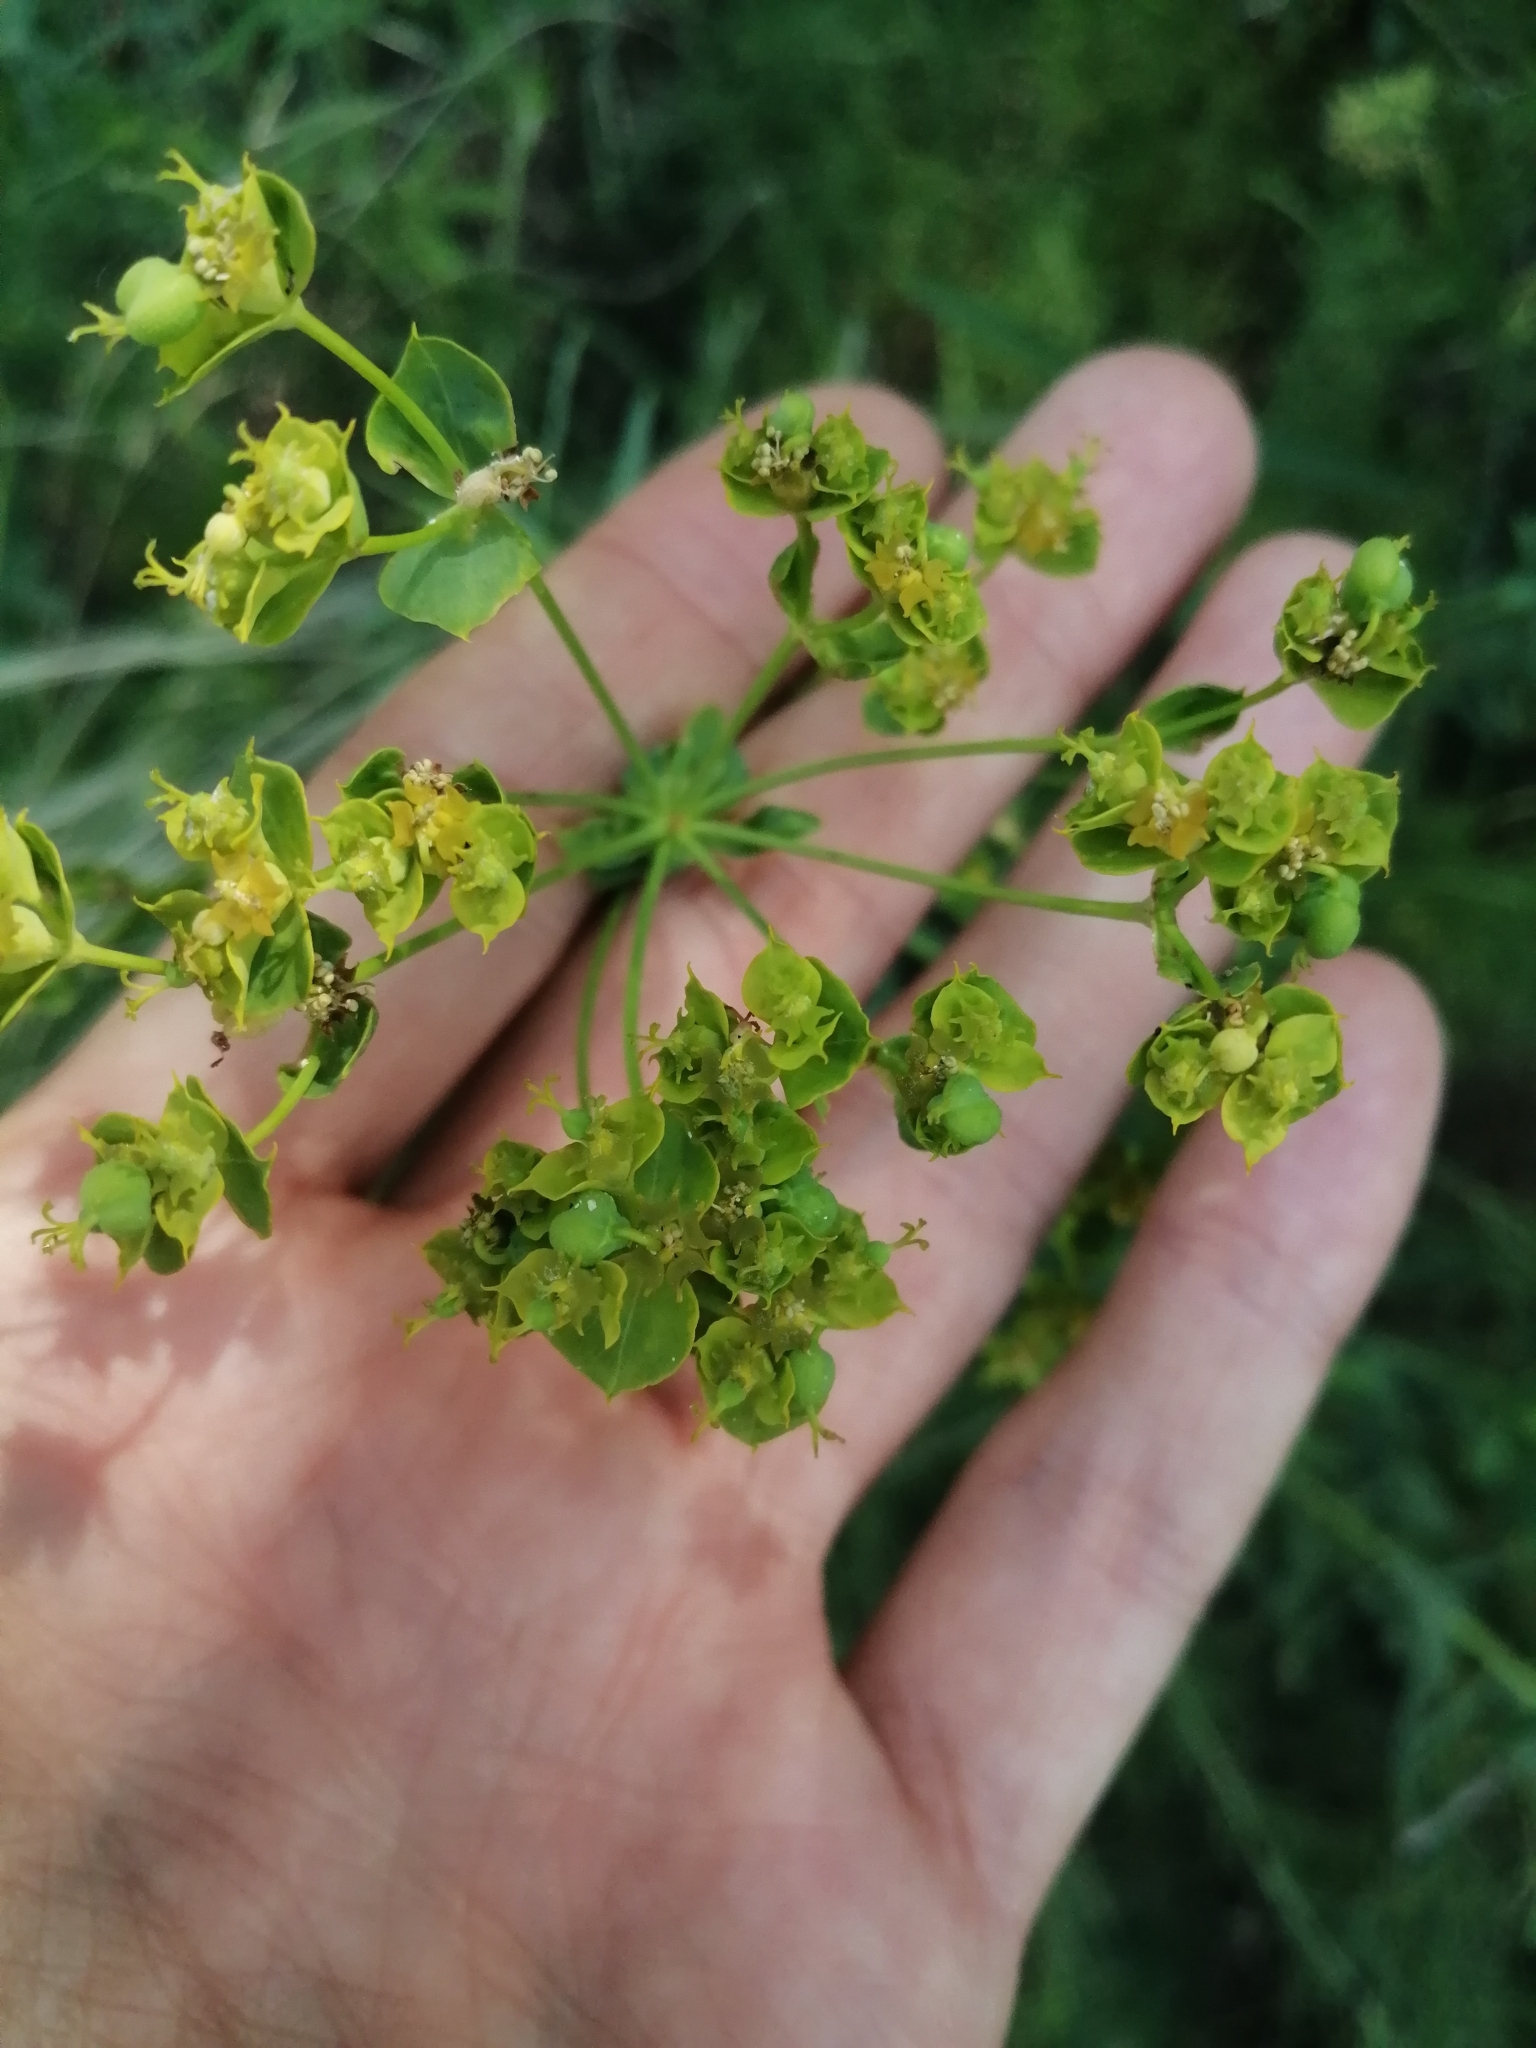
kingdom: Plantae
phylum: Tracheophyta
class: Magnoliopsida
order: Malpighiales
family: Euphorbiaceae
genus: Euphorbia
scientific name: Euphorbia virgata
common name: Leafy spurge
